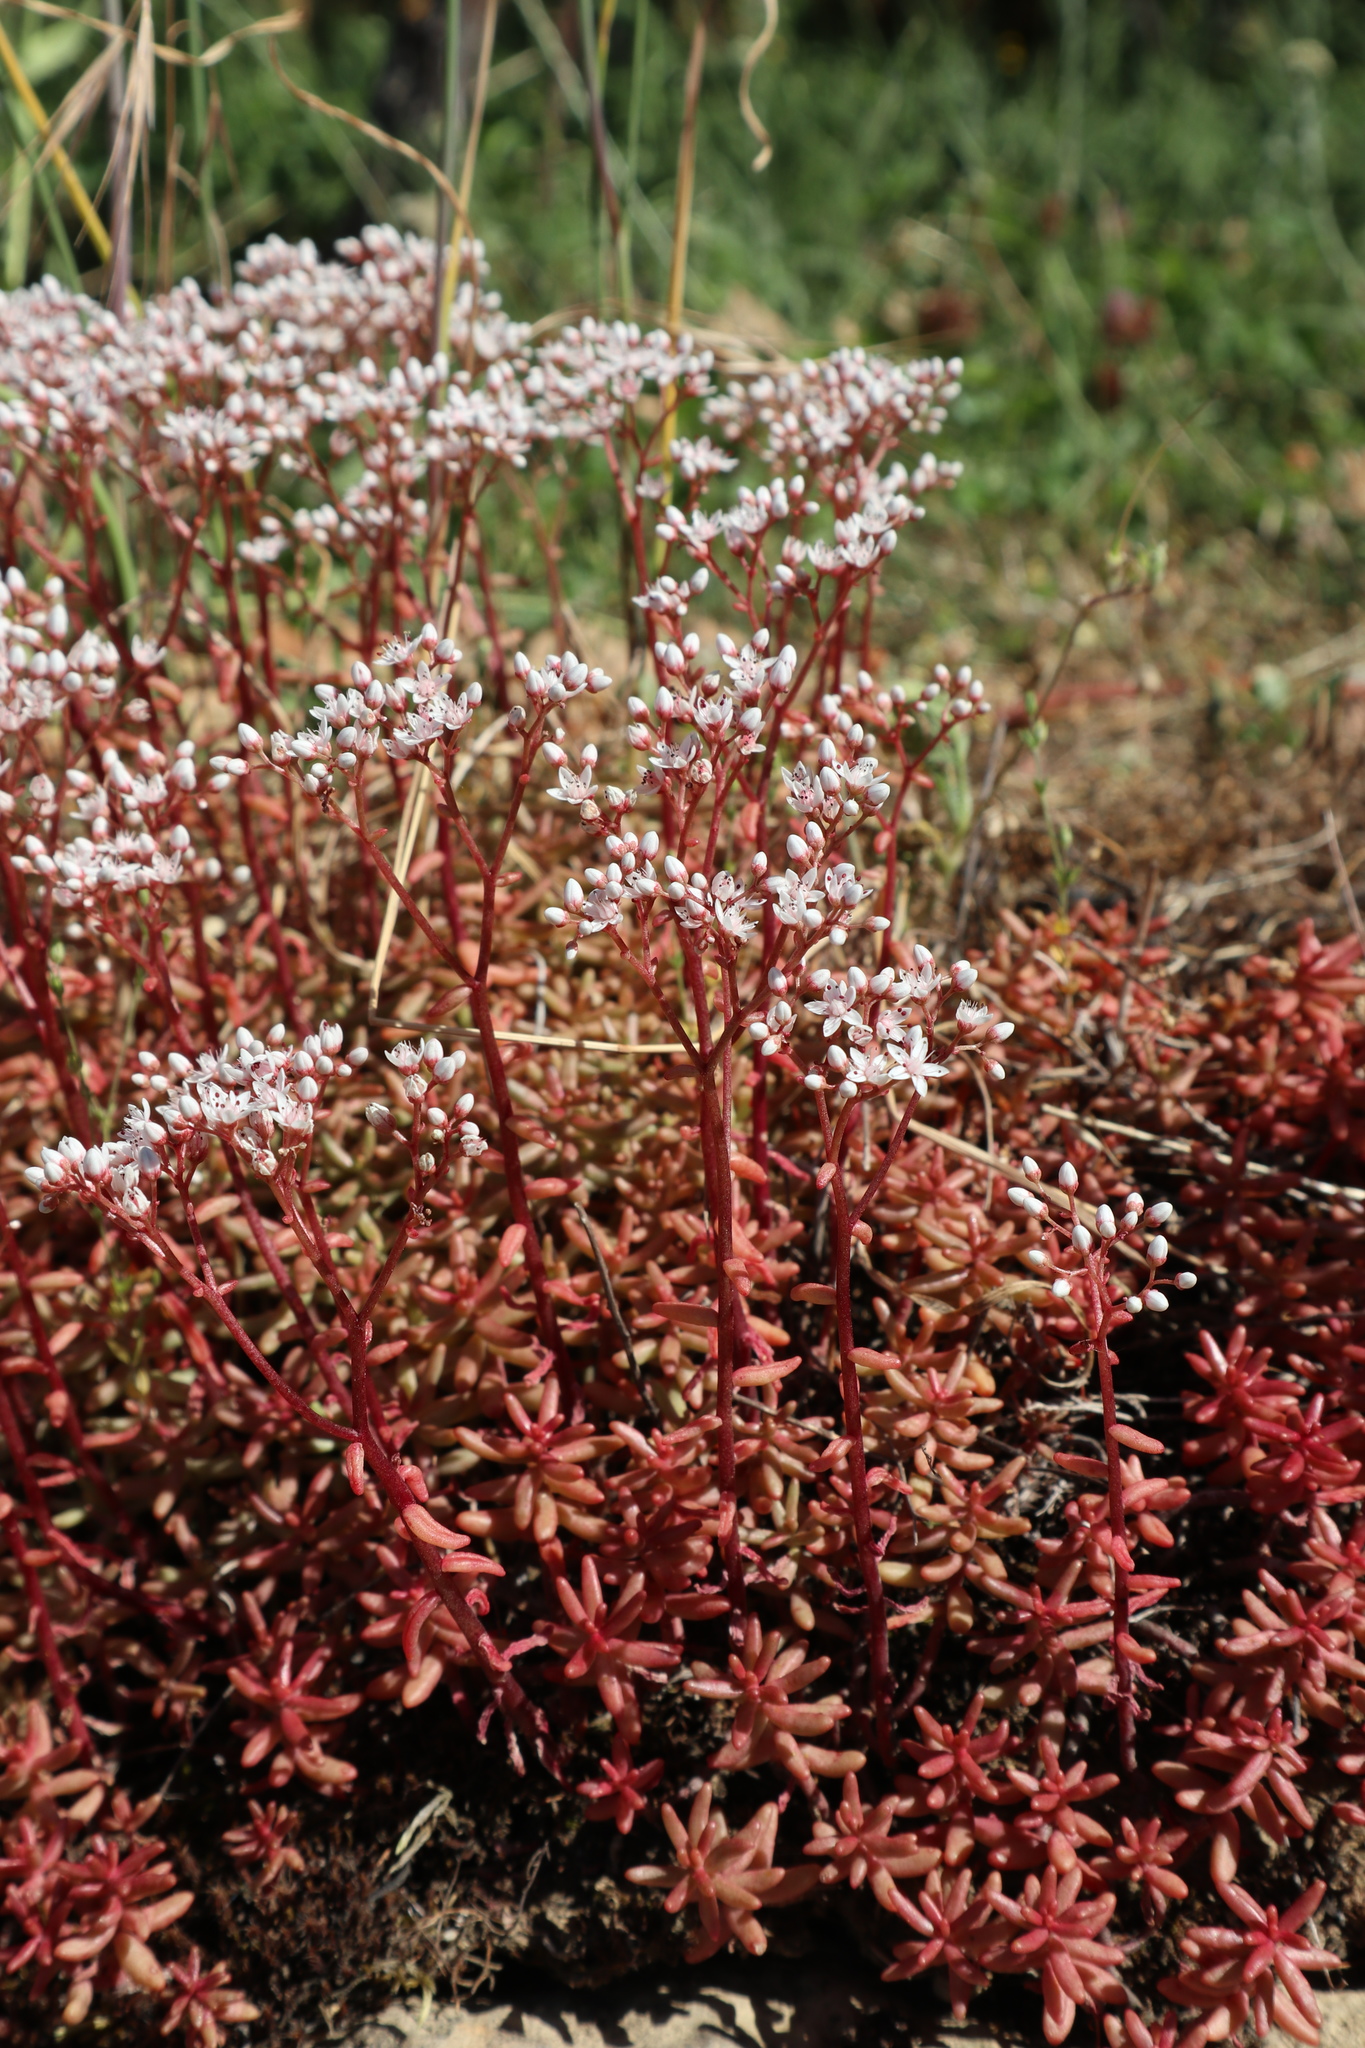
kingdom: Plantae
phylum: Tracheophyta
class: Magnoliopsida
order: Saxifragales
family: Crassulaceae
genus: Sedum
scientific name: Sedum album
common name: White stonecrop
